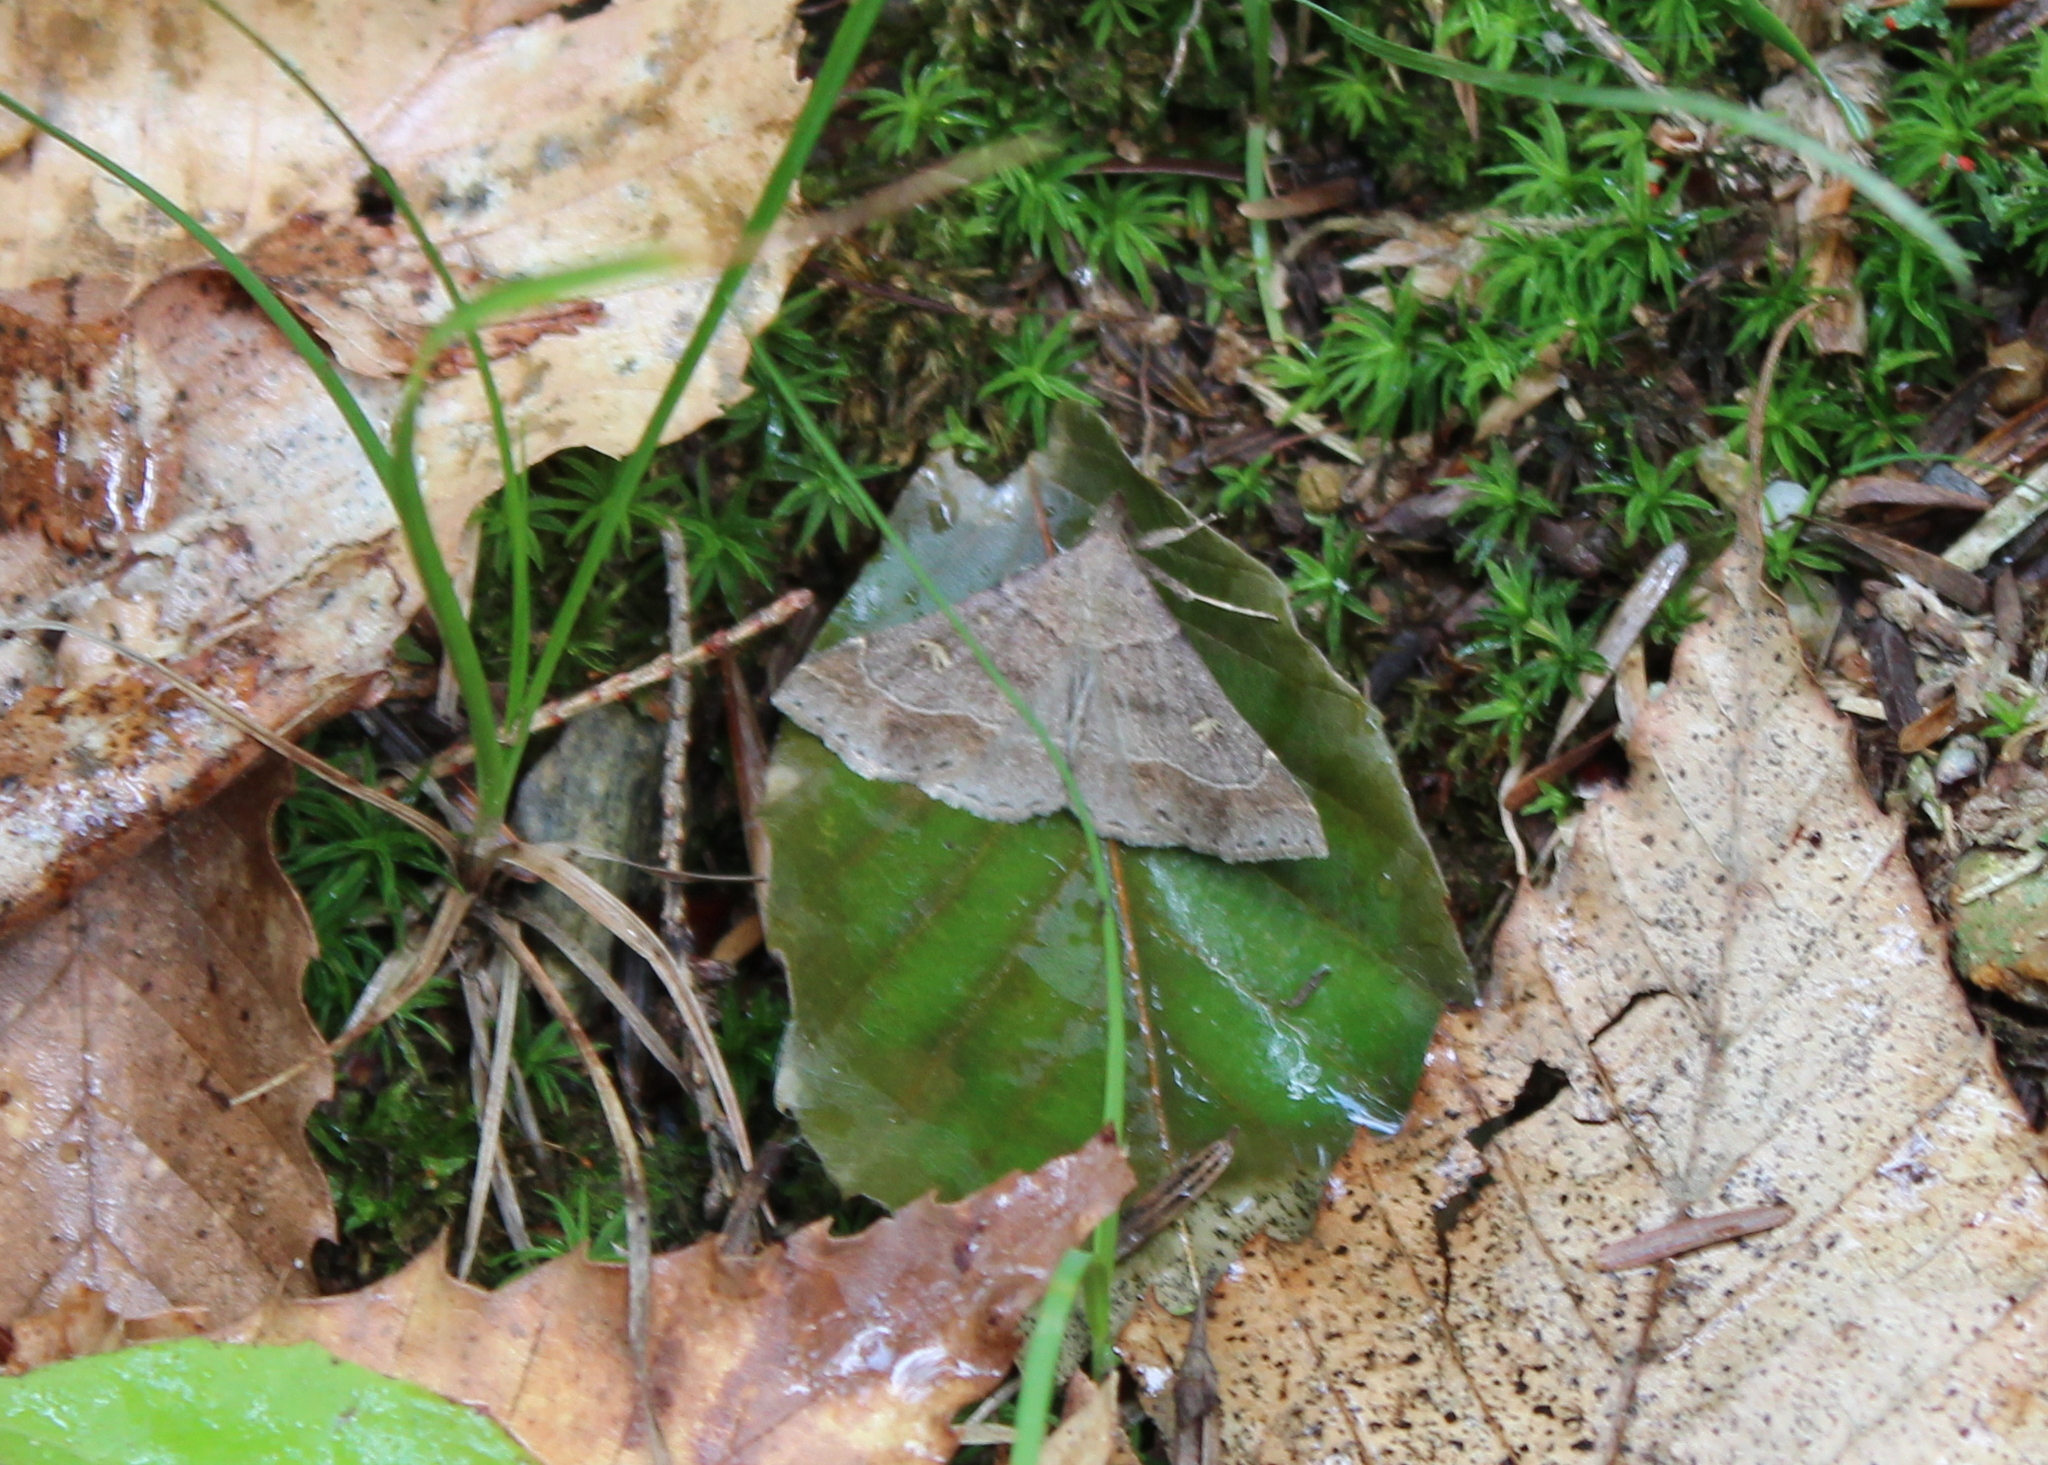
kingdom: Animalia
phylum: Arthropoda
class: Insecta
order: Lepidoptera
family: Erebidae
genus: Renia
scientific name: Renia flavipunctalis
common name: Yellow-spotted renia moth
